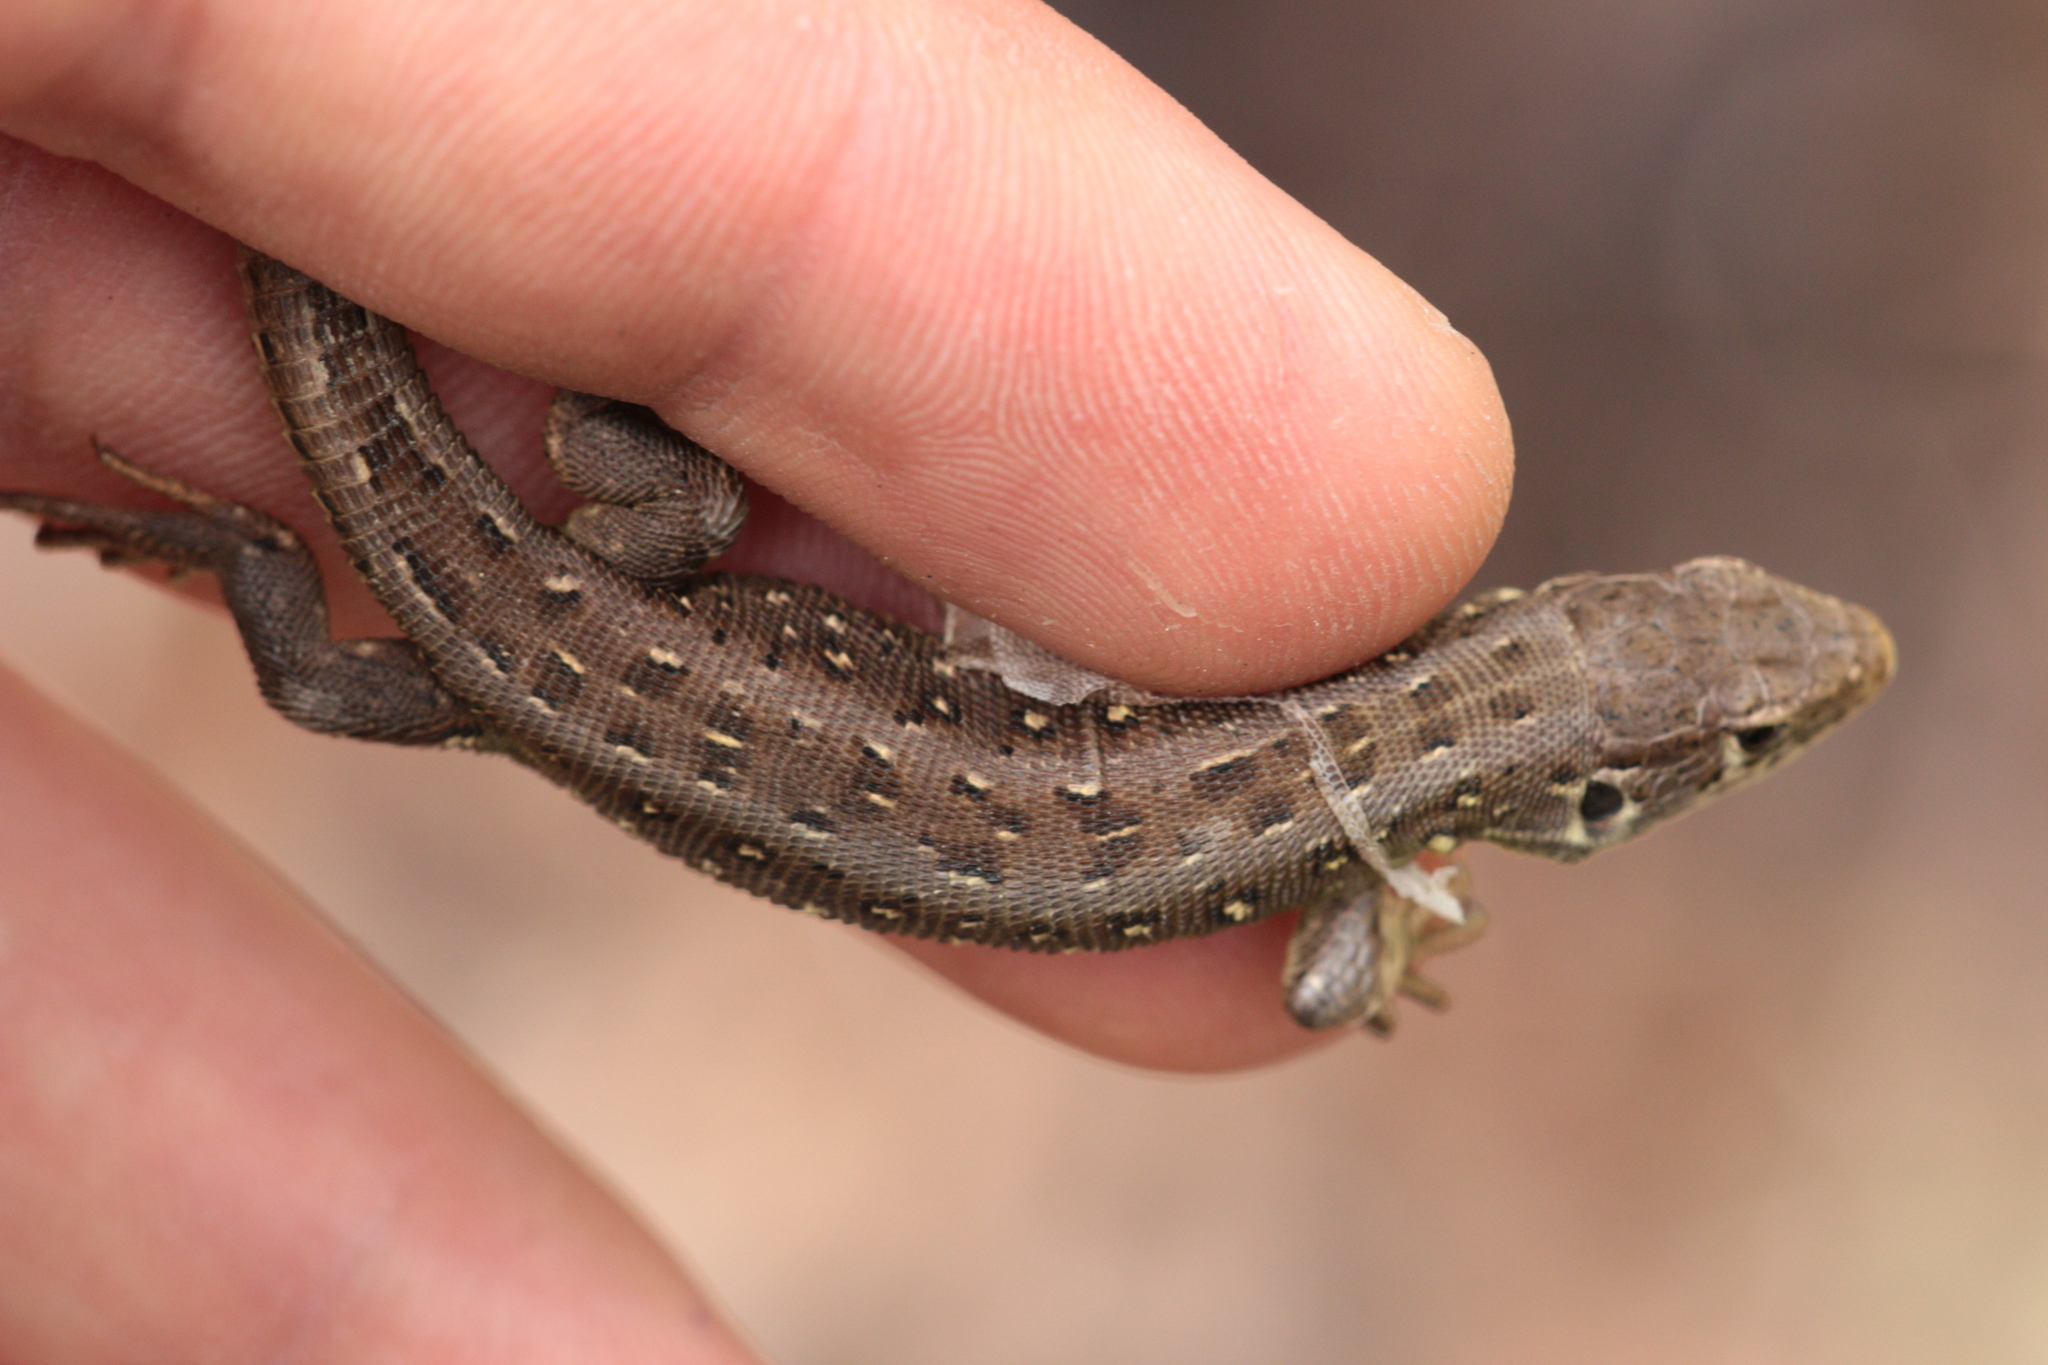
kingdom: Animalia
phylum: Chordata
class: Squamata
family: Lacertidae
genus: Lacerta
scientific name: Lacerta agilis
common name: Sand lizard
